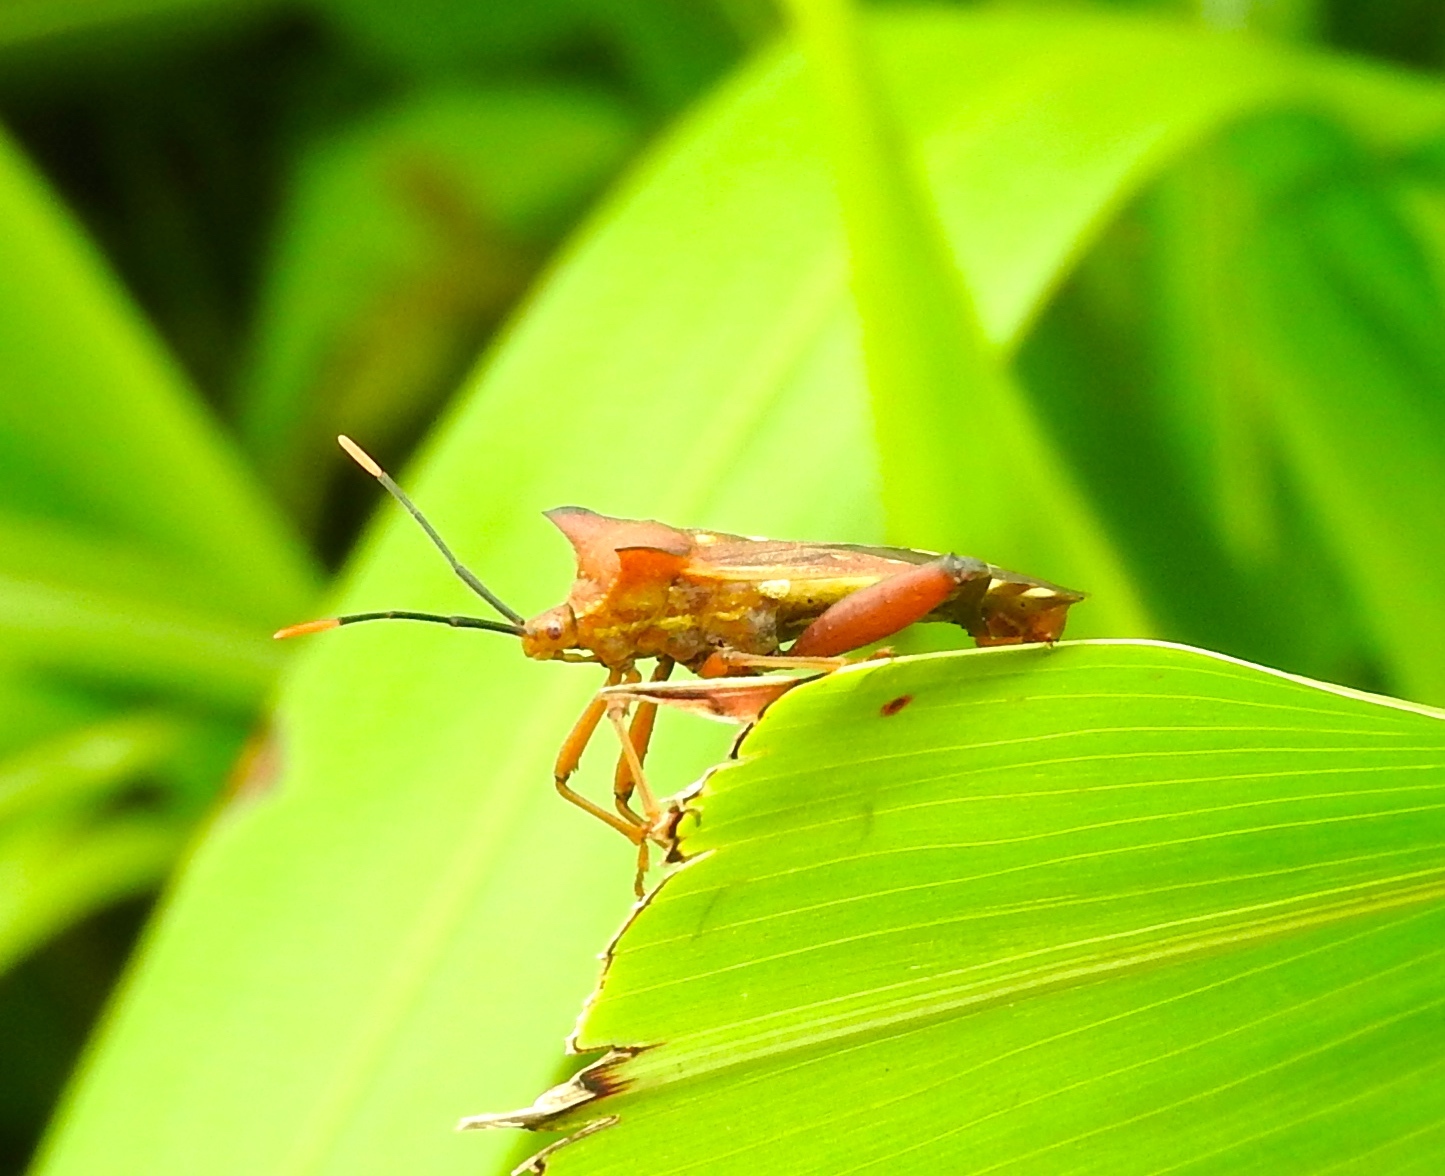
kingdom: Animalia
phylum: Arthropoda
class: Insecta
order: Hemiptera
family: Coreidae
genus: Mozena
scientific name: Mozena lunata
